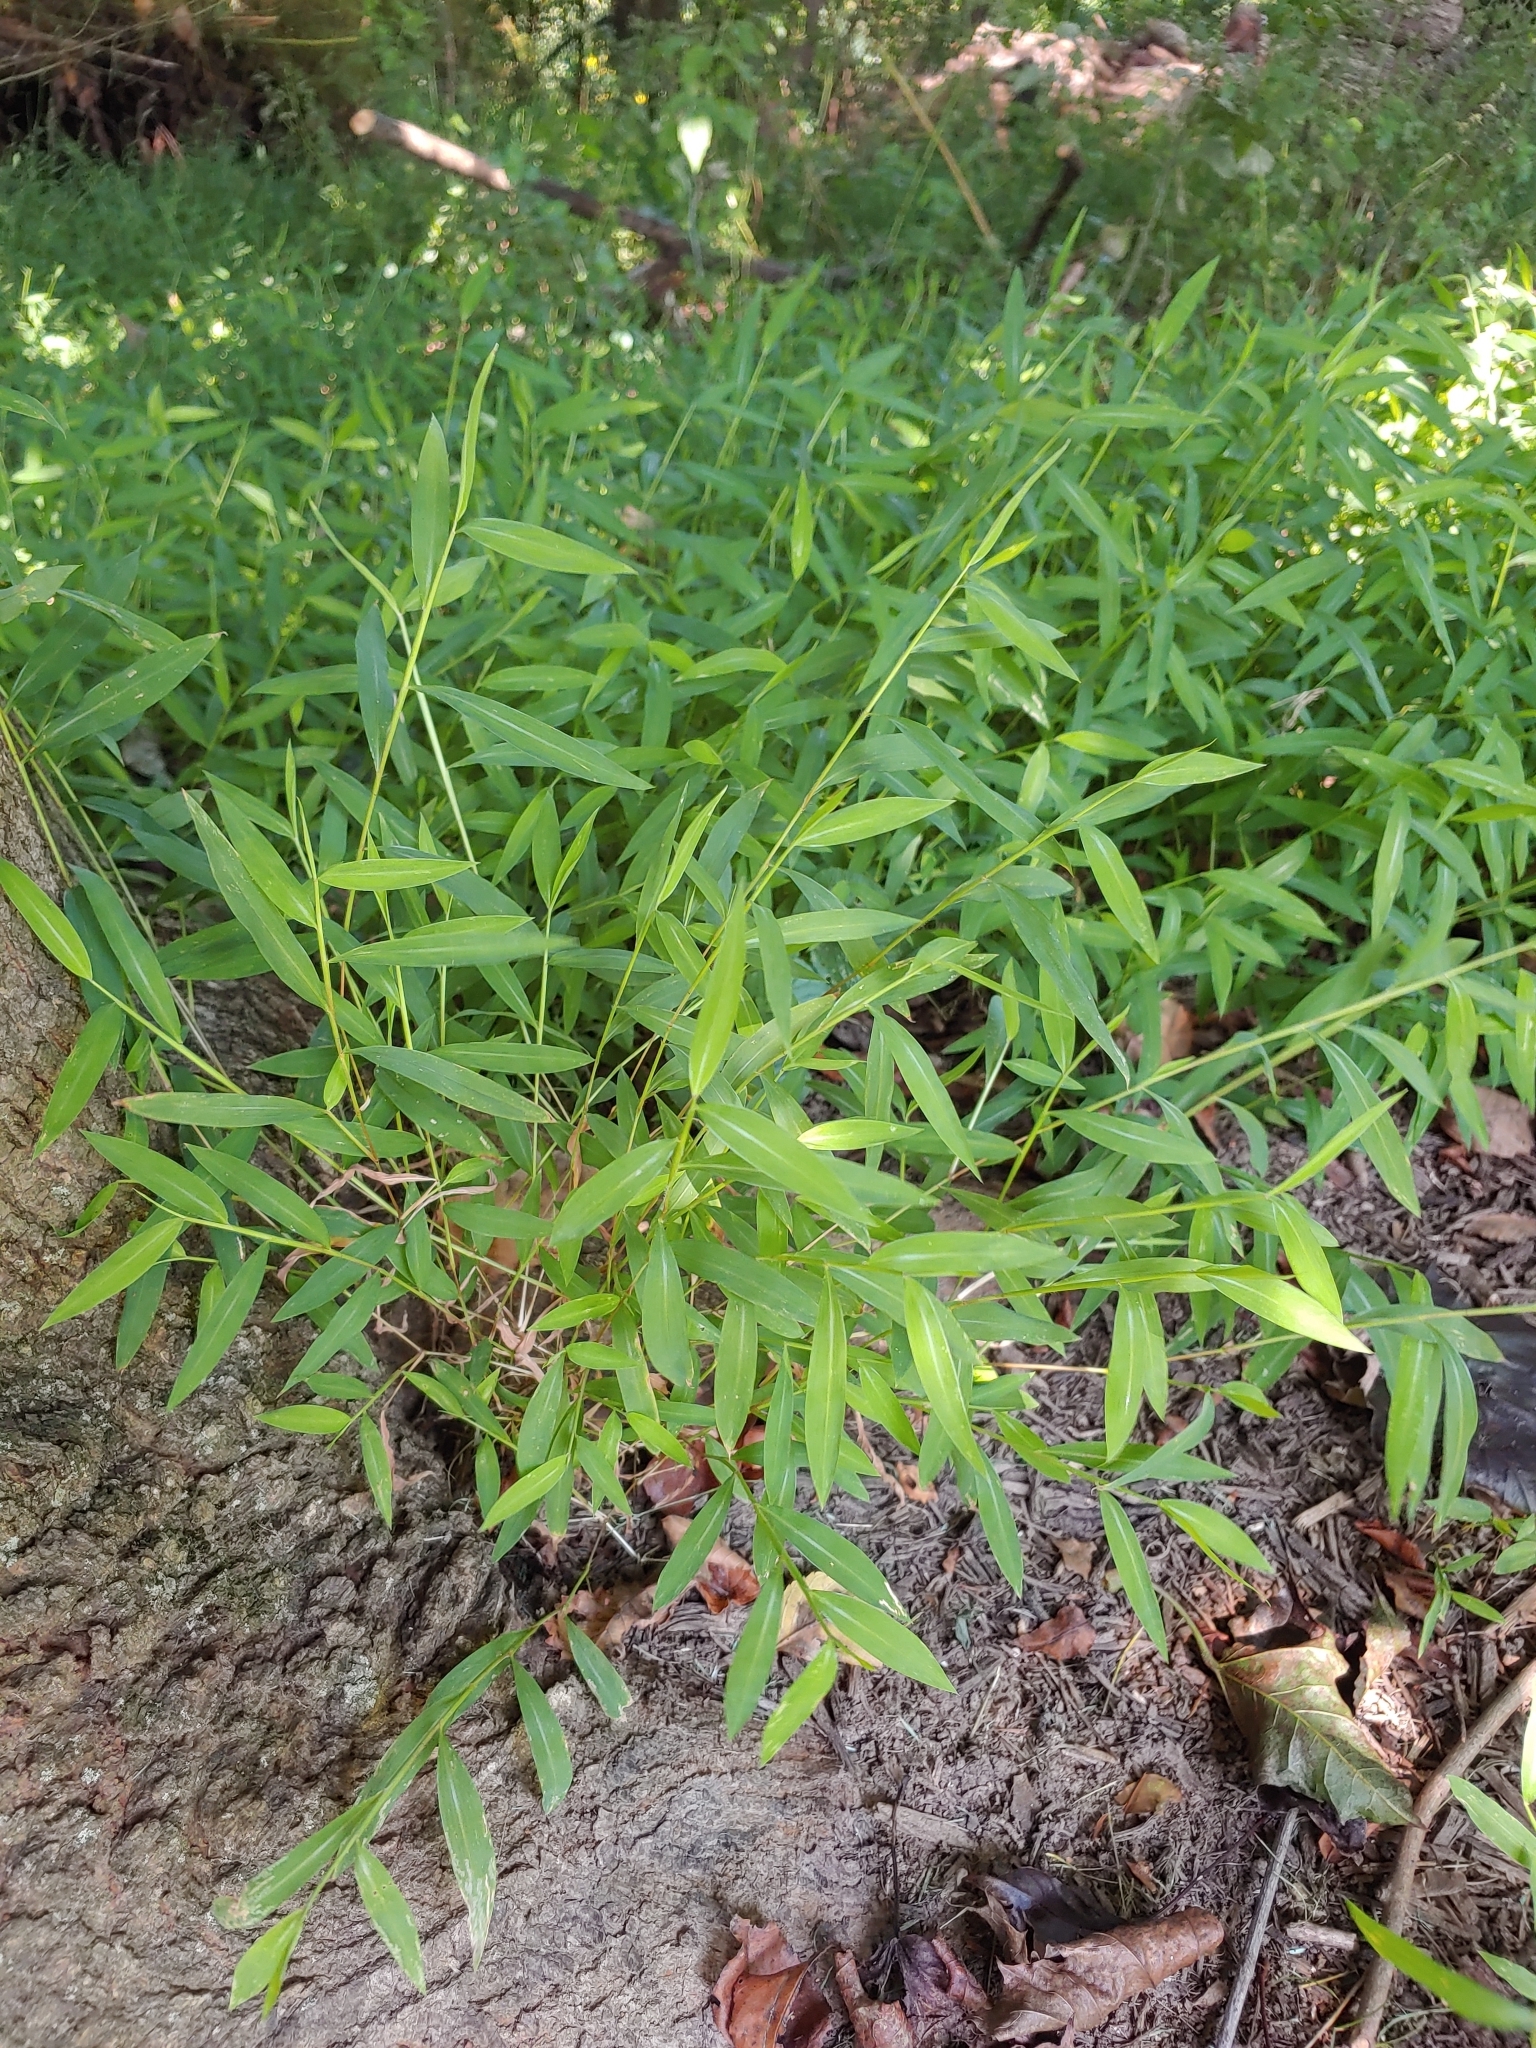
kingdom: Plantae
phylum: Tracheophyta
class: Liliopsida
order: Poales
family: Poaceae
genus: Microstegium
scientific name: Microstegium vimineum
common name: Japanese stiltgrass
